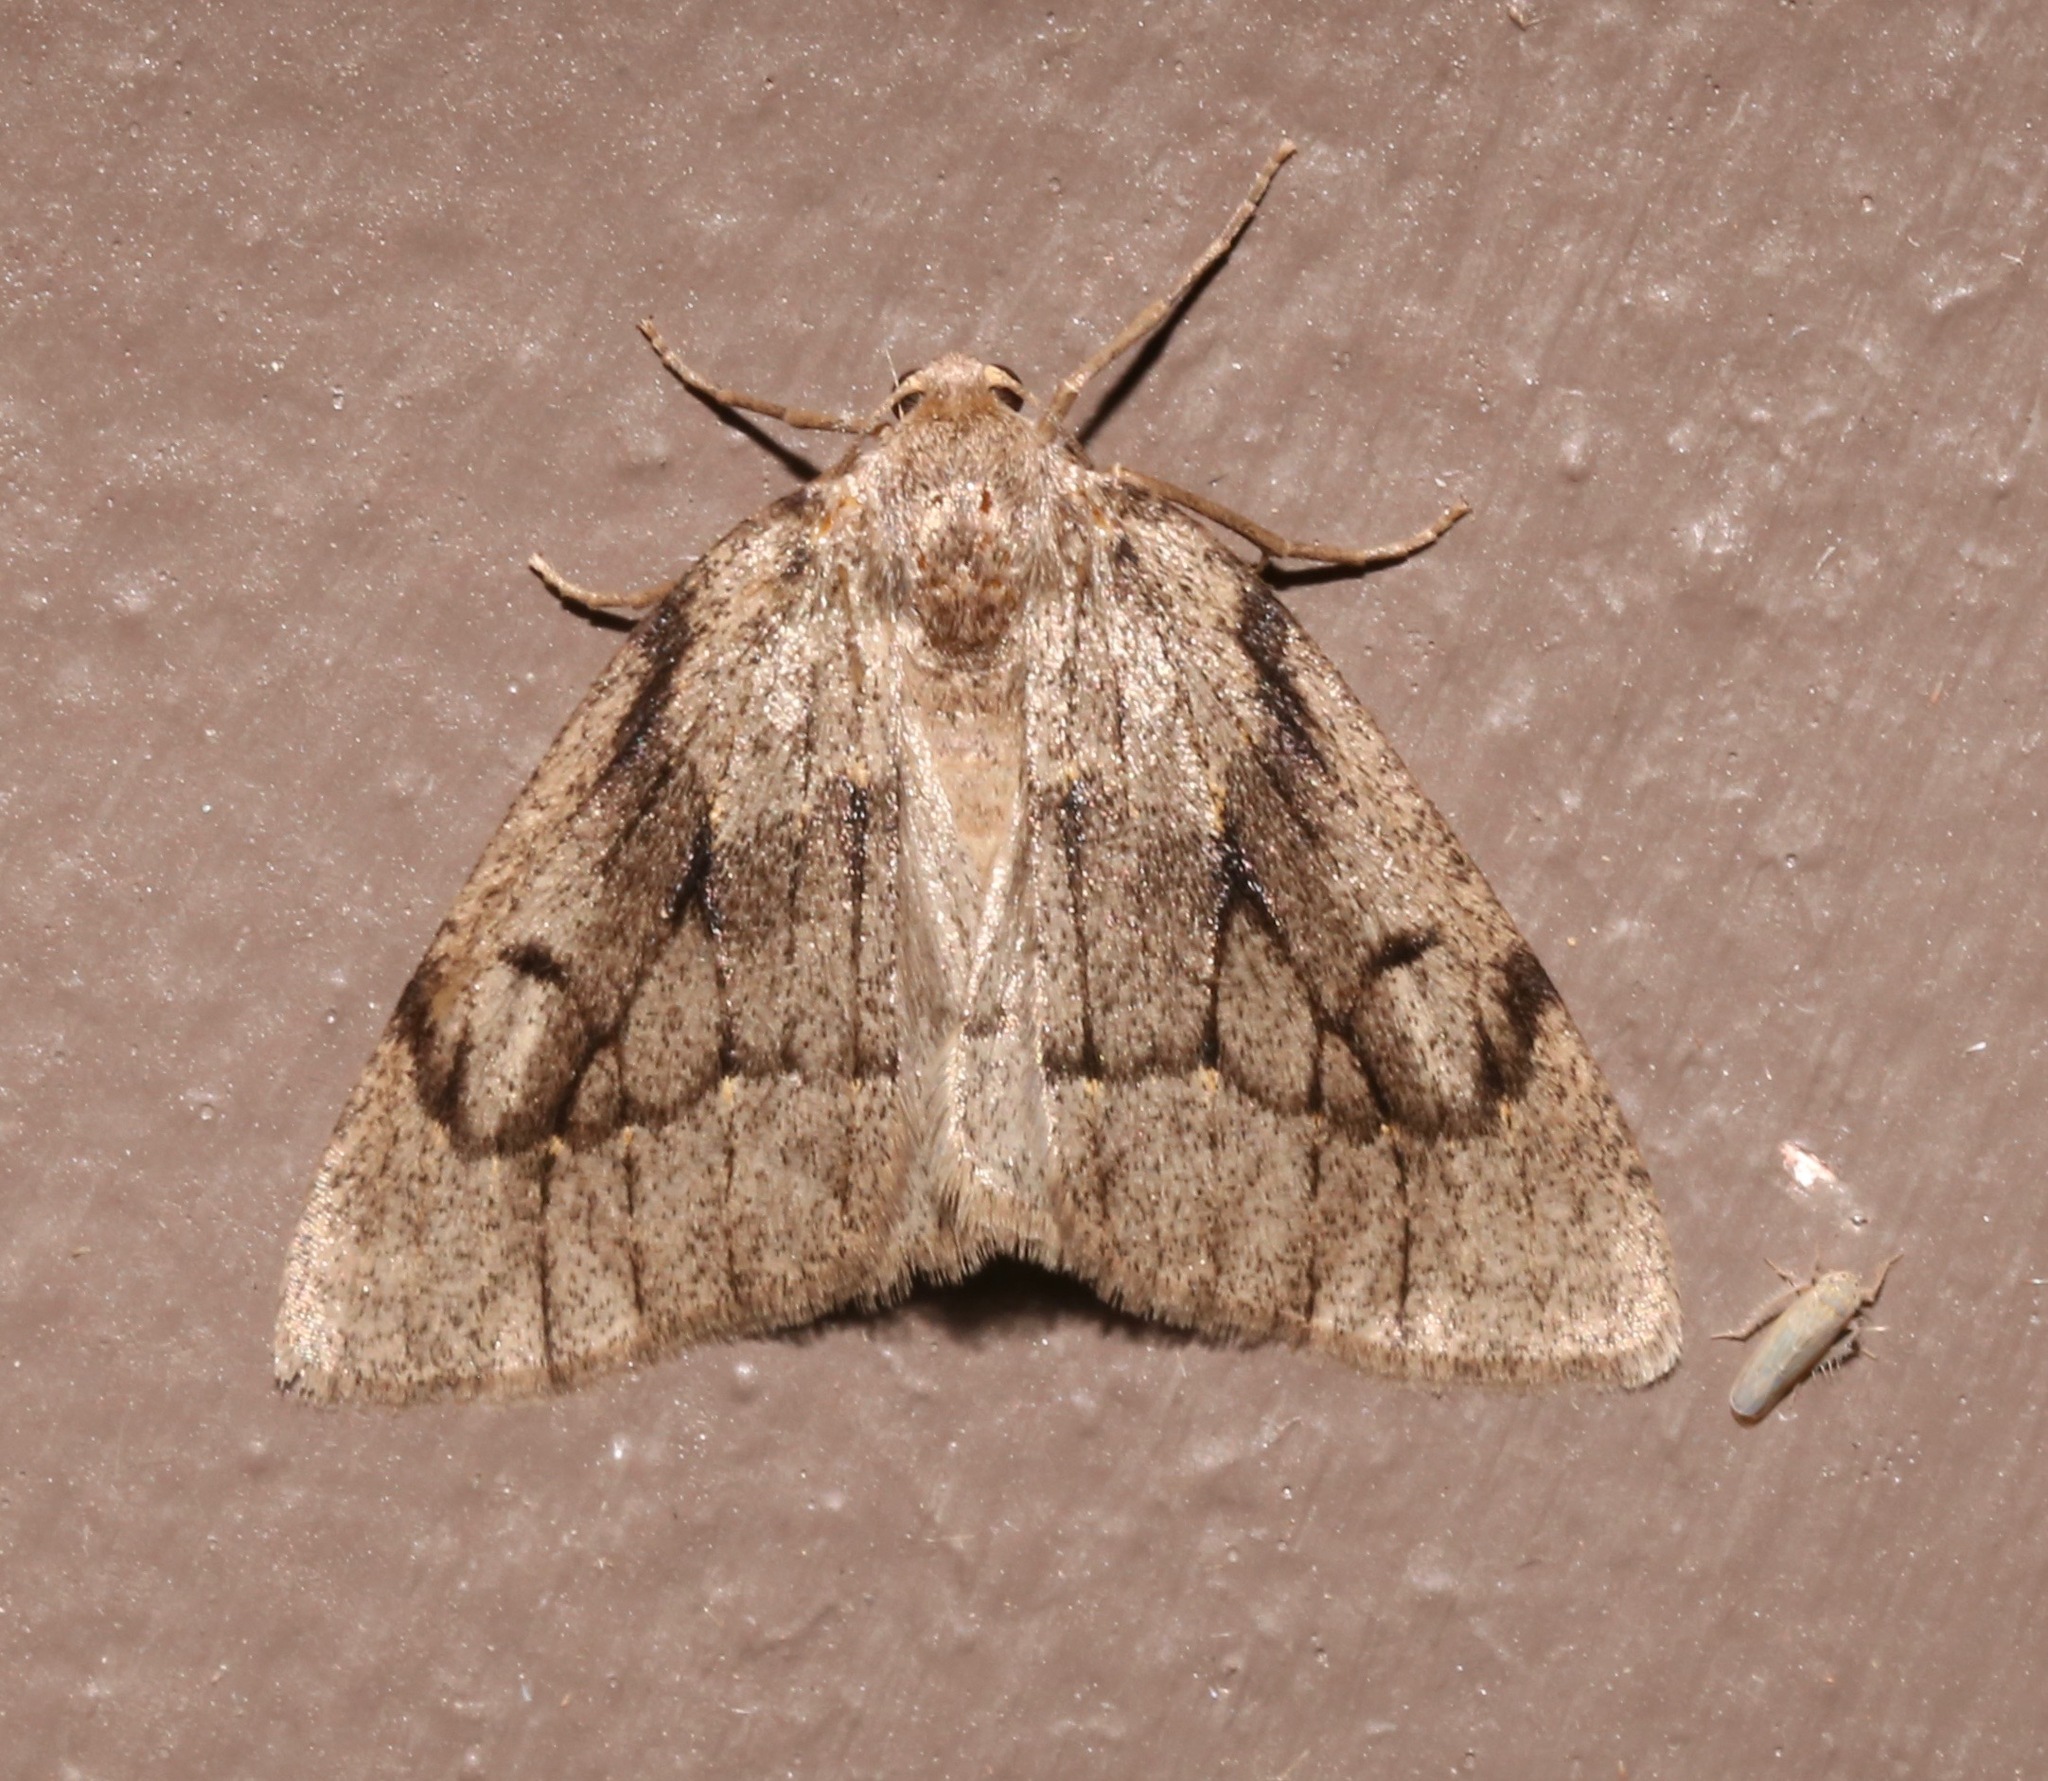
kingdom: Animalia
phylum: Arthropoda
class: Insecta
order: Lepidoptera
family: Geometridae
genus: Nepytia
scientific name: Nepytia swetti
